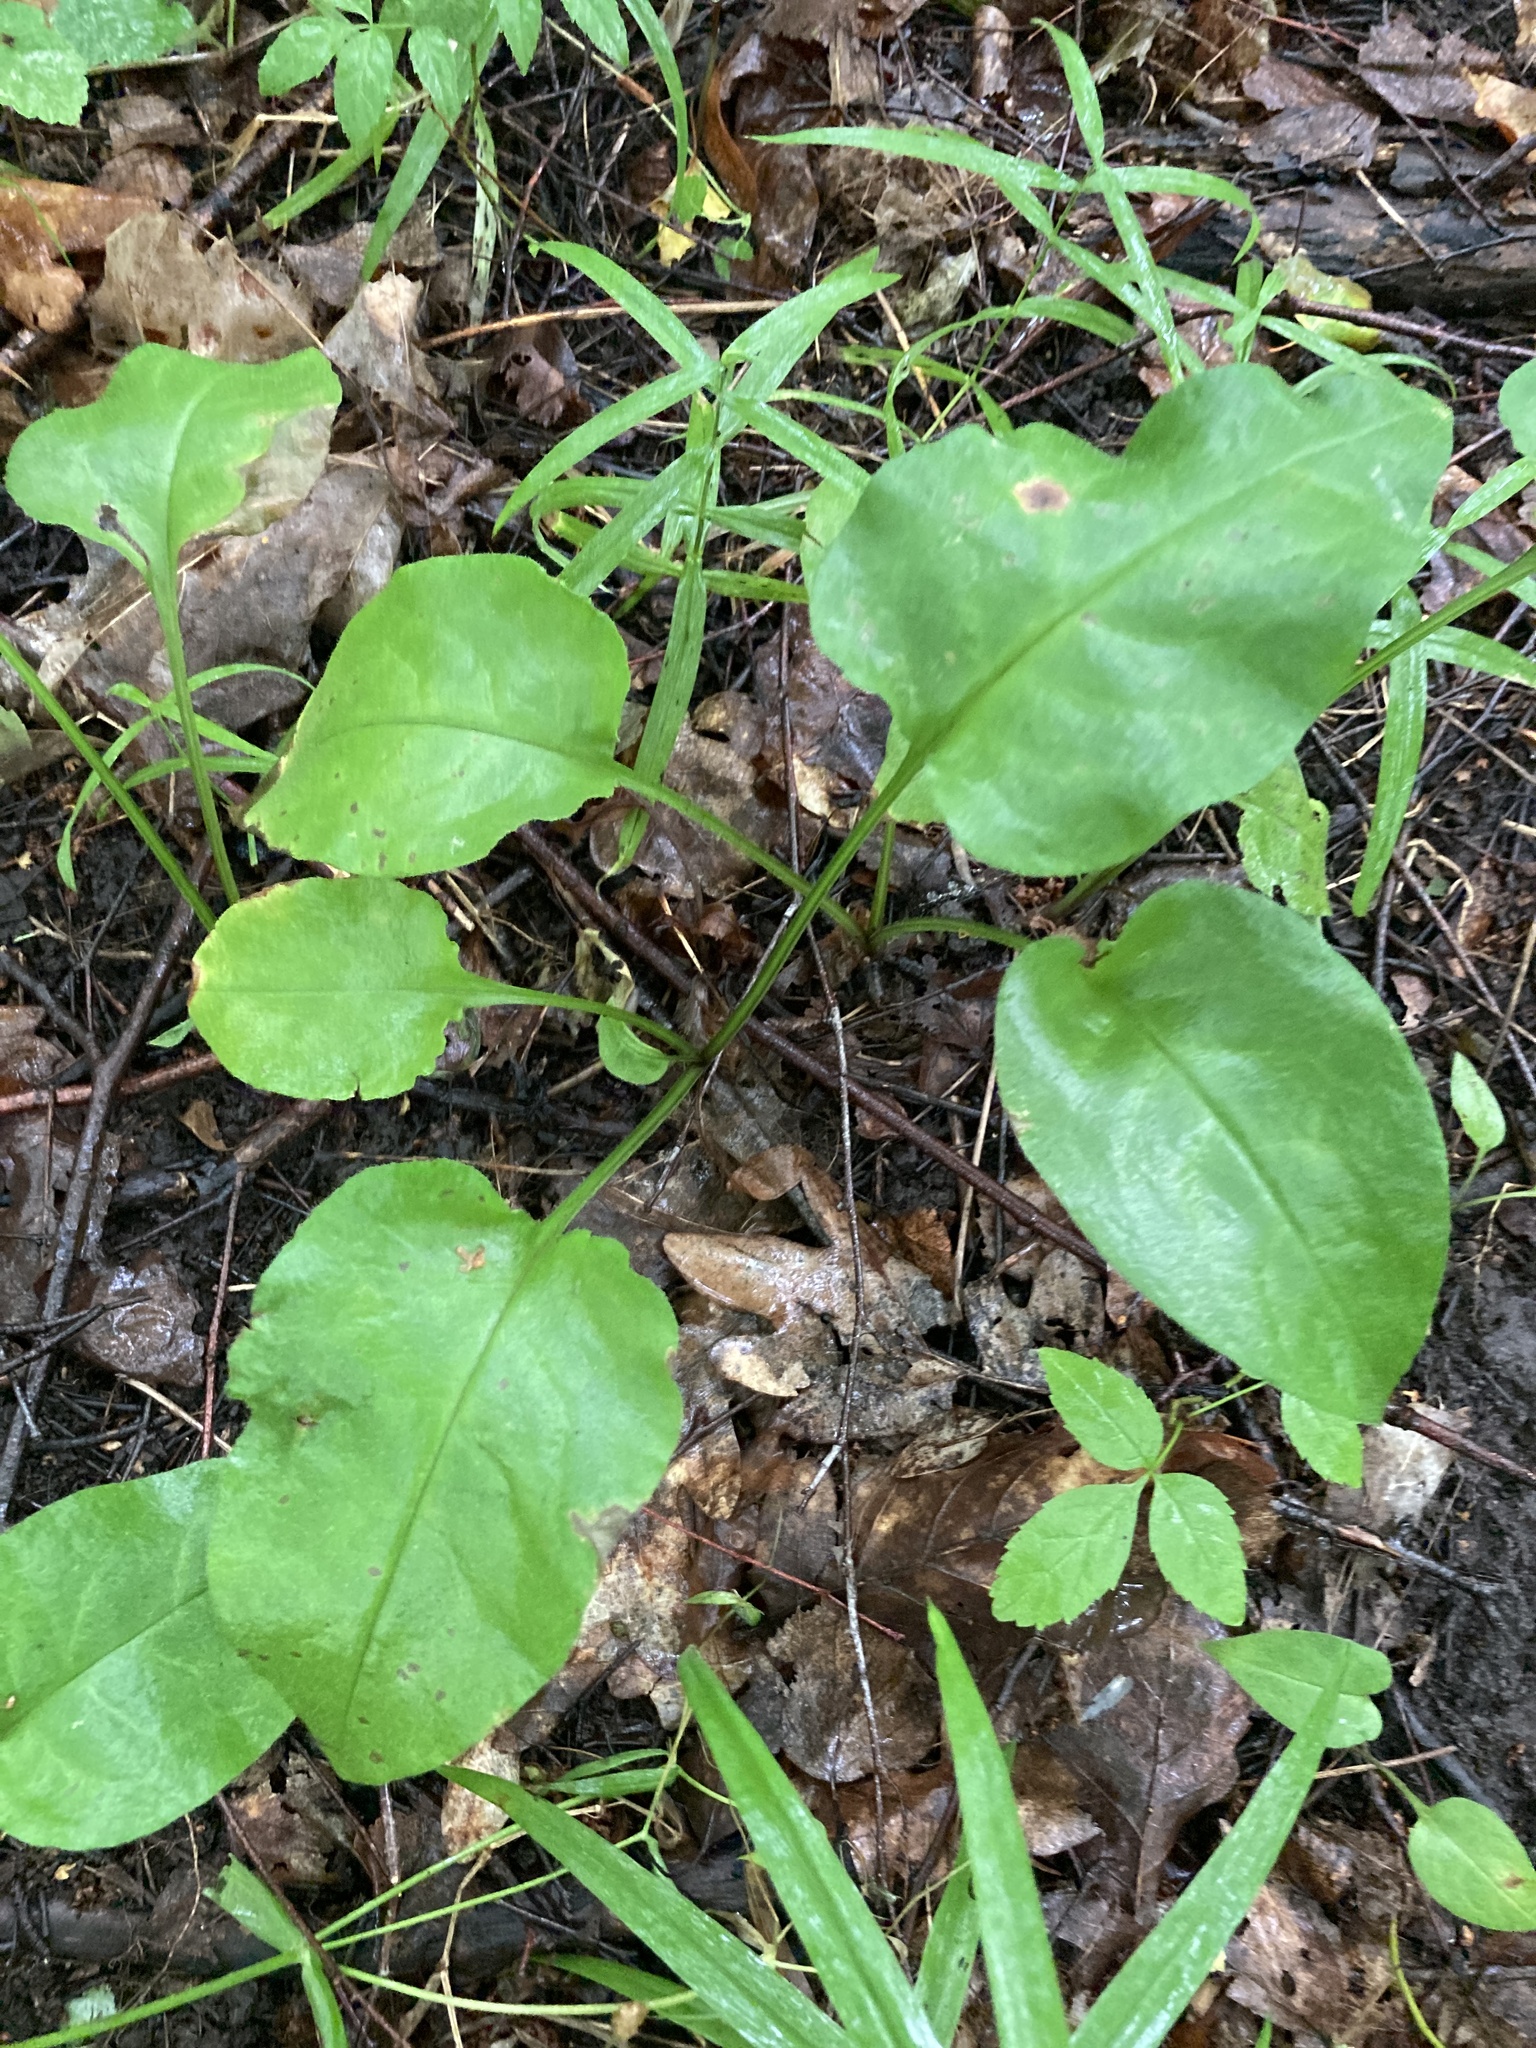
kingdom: Plantae
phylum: Tracheophyta
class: Magnoliopsida
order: Boraginales
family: Boraginaceae
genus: Pulmonaria
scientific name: Pulmonaria obscura
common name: Suffolk lungwort
